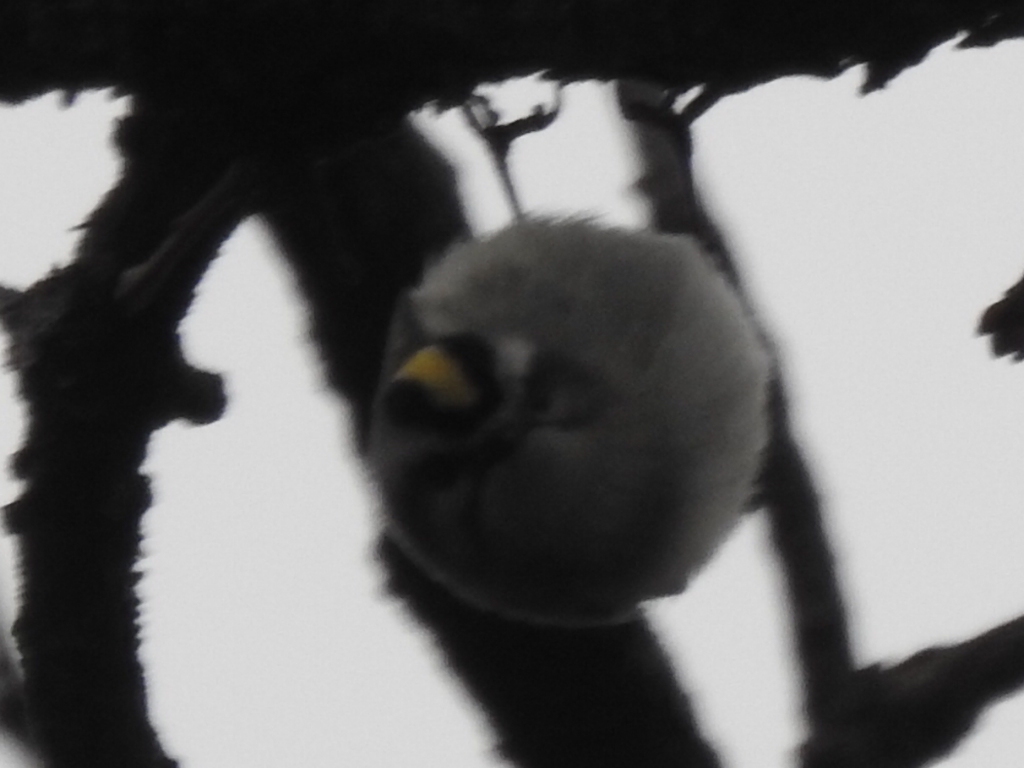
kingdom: Animalia
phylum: Chordata
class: Aves
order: Passeriformes
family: Regulidae
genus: Regulus
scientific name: Regulus satrapa
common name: Golden-crowned kinglet
